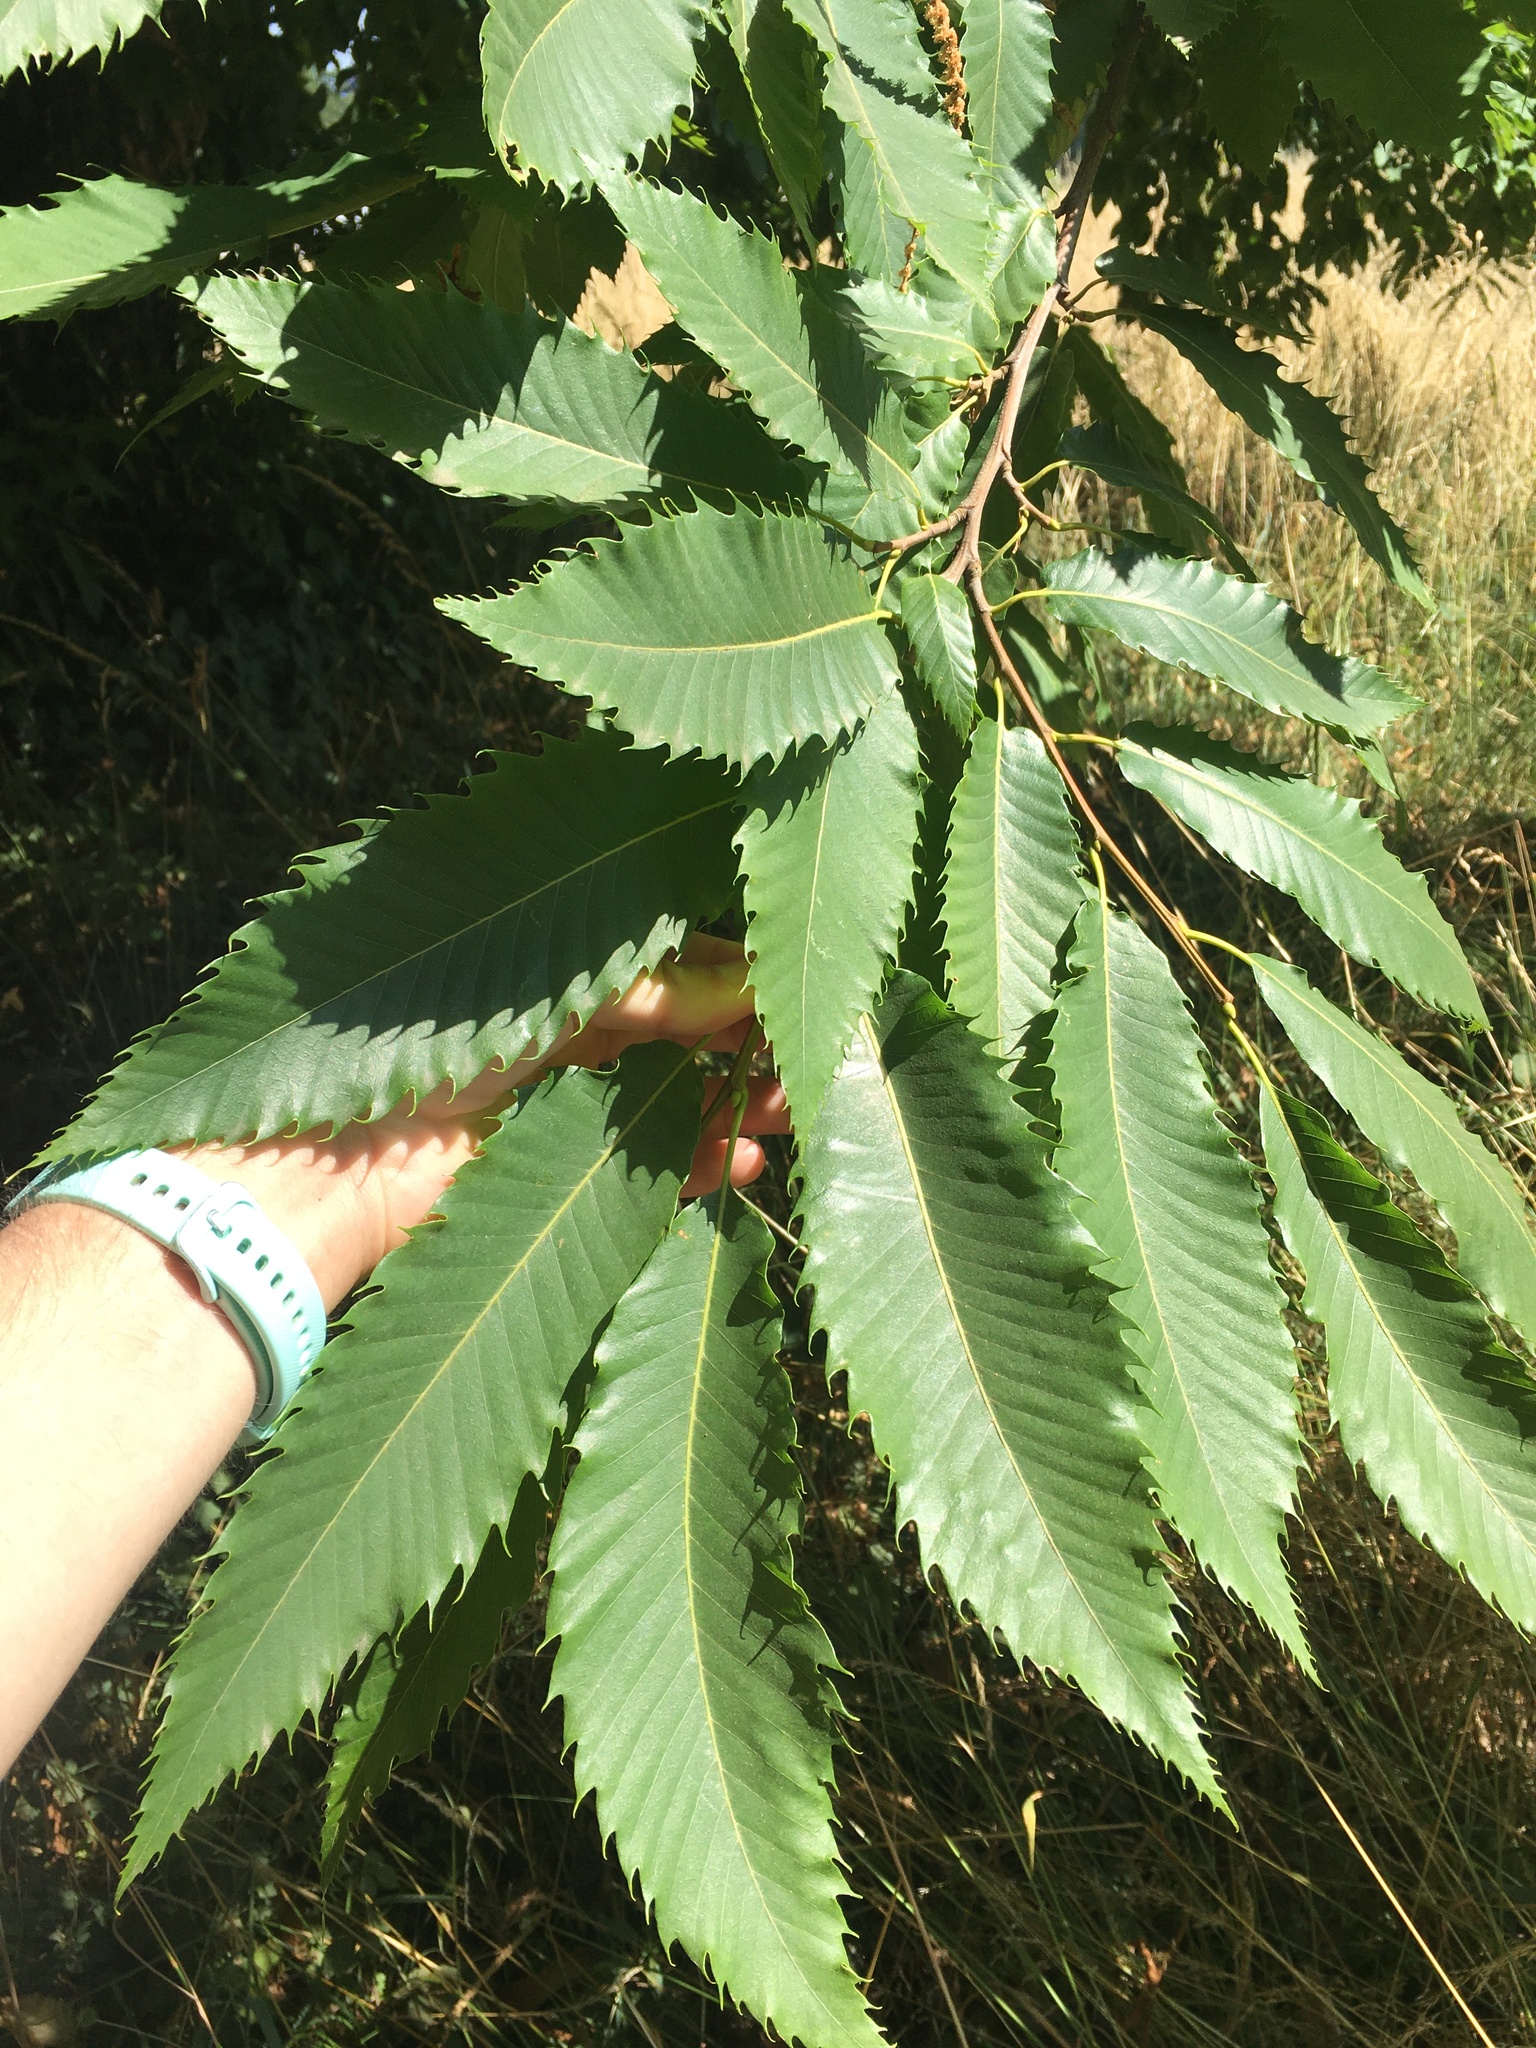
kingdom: Plantae
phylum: Tracheophyta
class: Magnoliopsida
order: Fagales
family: Fagaceae
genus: Castanea
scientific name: Castanea sativa
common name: Sweet chestnut
